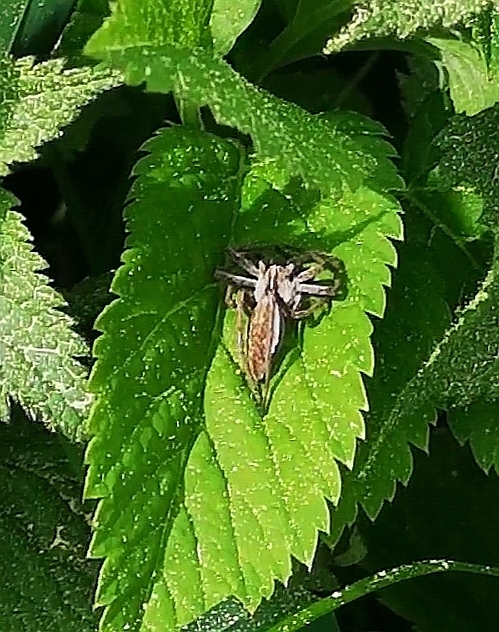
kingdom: Animalia
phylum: Arthropoda
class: Arachnida
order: Araneae
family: Pisauridae
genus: Pisaura
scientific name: Pisaura mirabilis
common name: Tent spider
